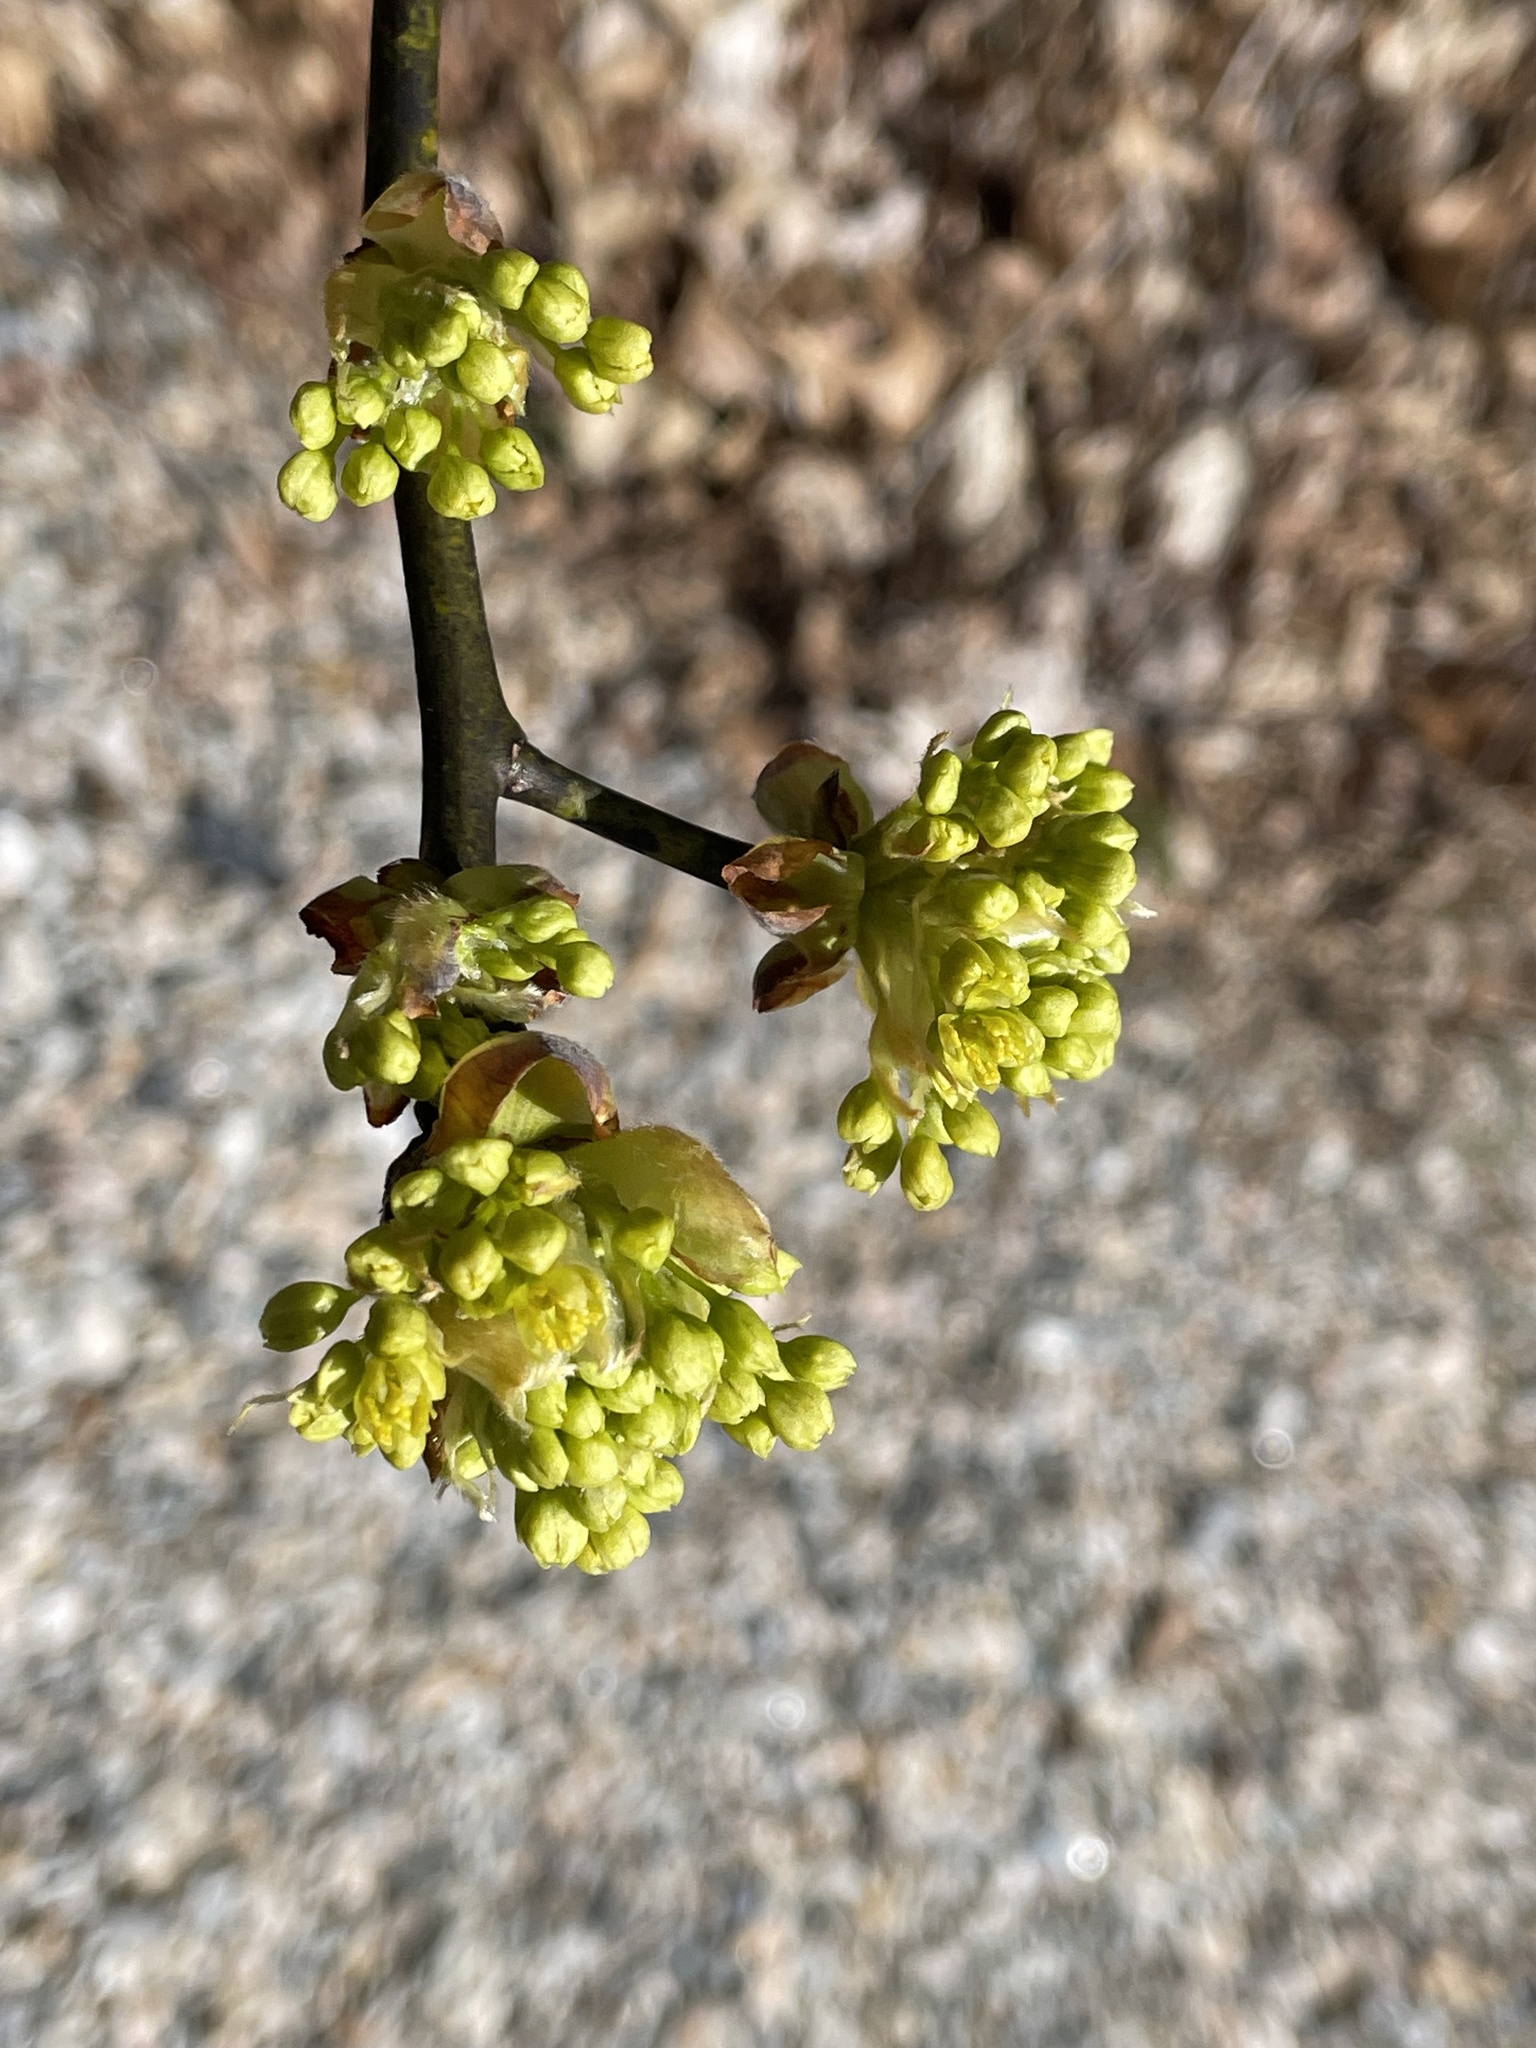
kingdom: Plantae
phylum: Tracheophyta
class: Magnoliopsida
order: Laurales
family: Lauraceae
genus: Sassafras
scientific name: Sassafras albidum
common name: Sassafras
